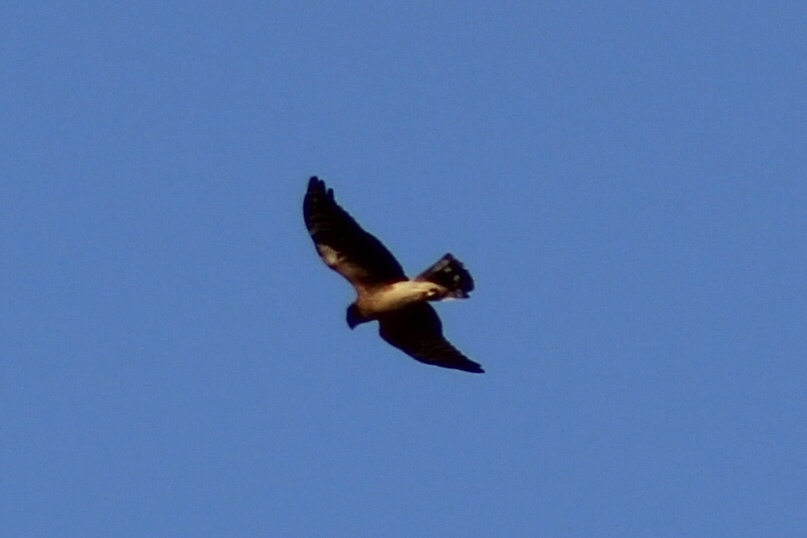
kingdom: Animalia
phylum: Chordata
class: Aves
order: Accipitriformes
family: Accipitridae
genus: Circus
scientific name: Circus cyaneus
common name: Hen harrier
